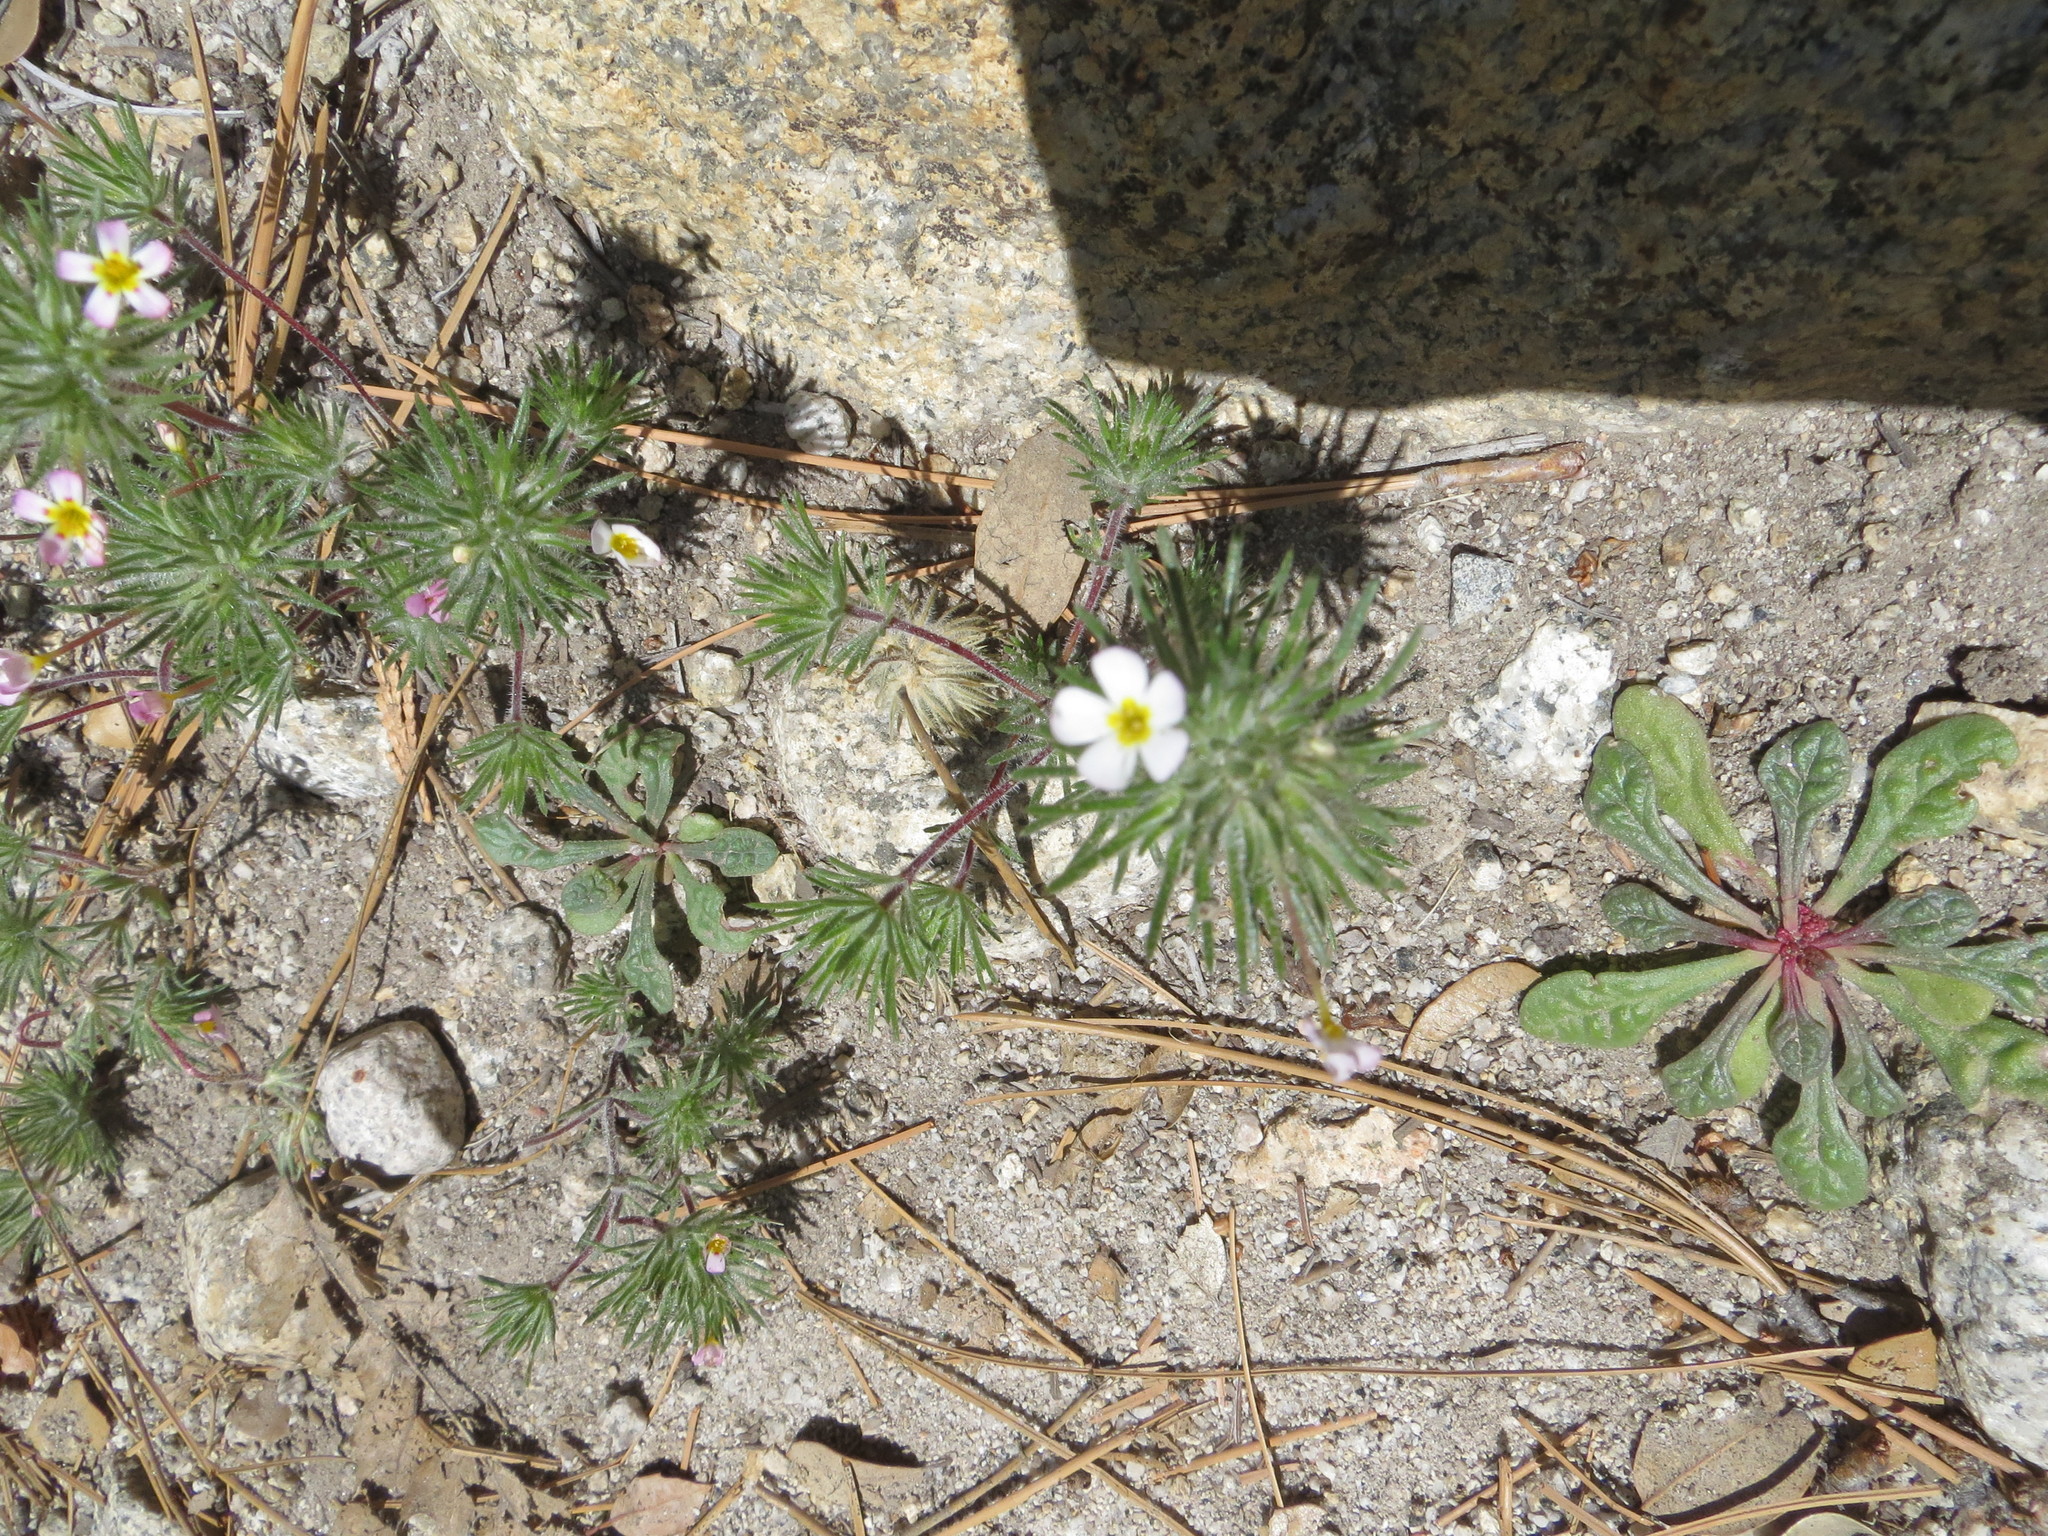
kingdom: Plantae
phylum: Tracheophyta
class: Magnoliopsida
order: Ericales
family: Polemoniaceae
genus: Leptosiphon
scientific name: Leptosiphon ciliatus
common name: Whiskerbrush
